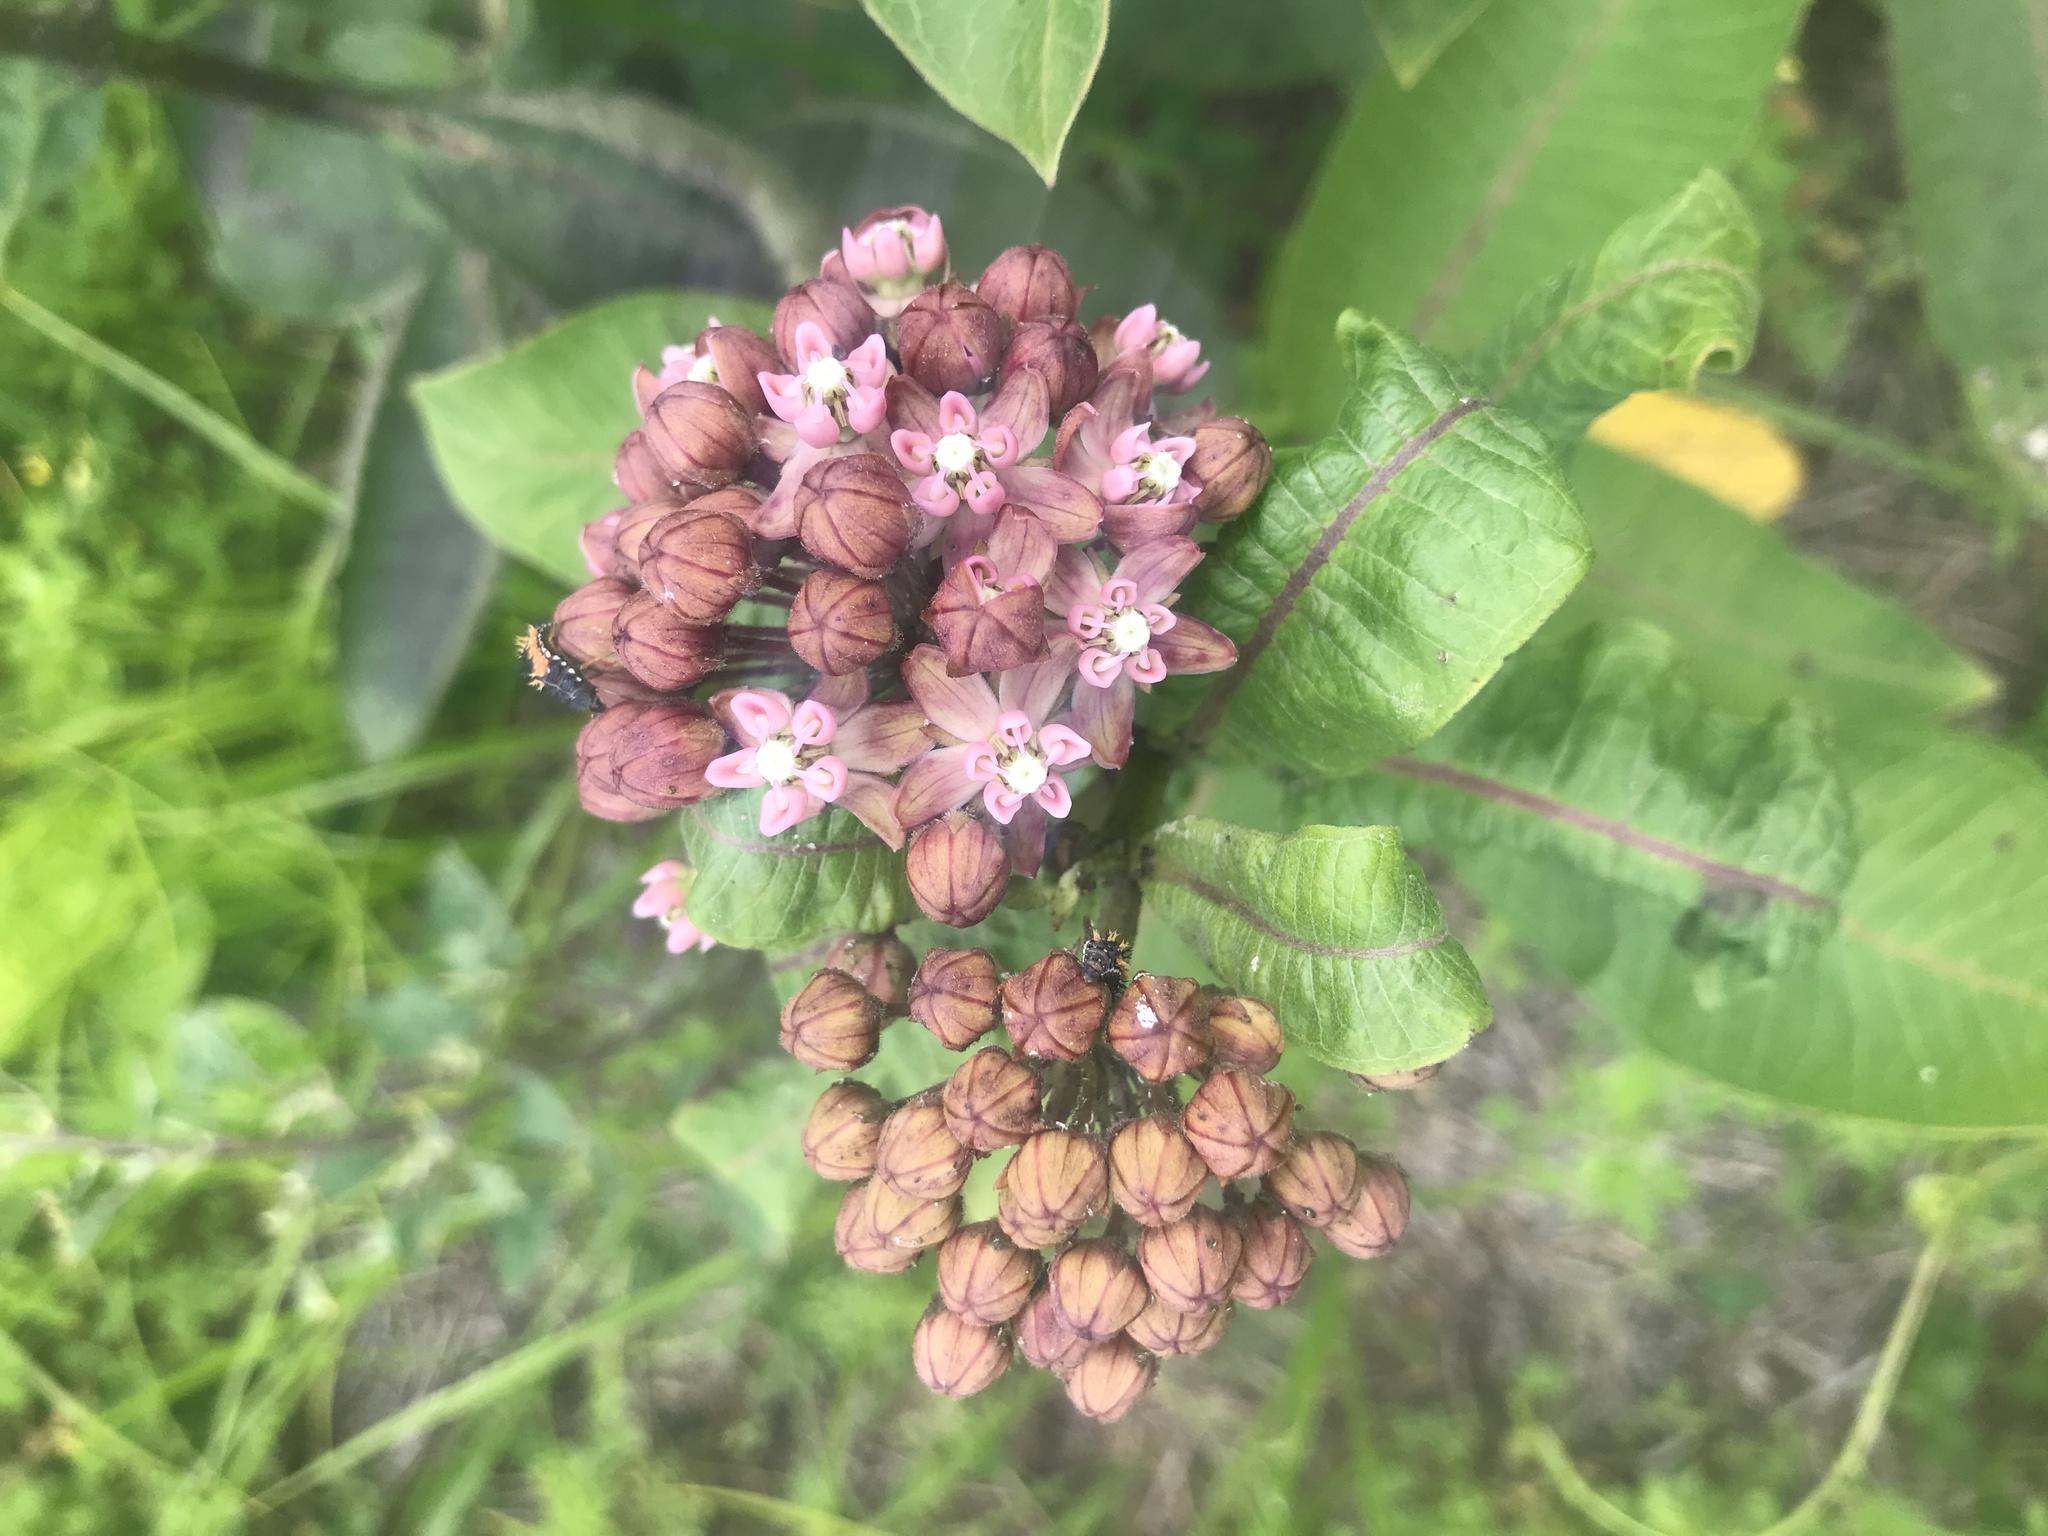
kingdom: Plantae
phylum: Tracheophyta
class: Magnoliopsida
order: Gentianales
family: Apocynaceae
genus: Asclepias
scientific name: Asclepias syriaca
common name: Common milkweed
